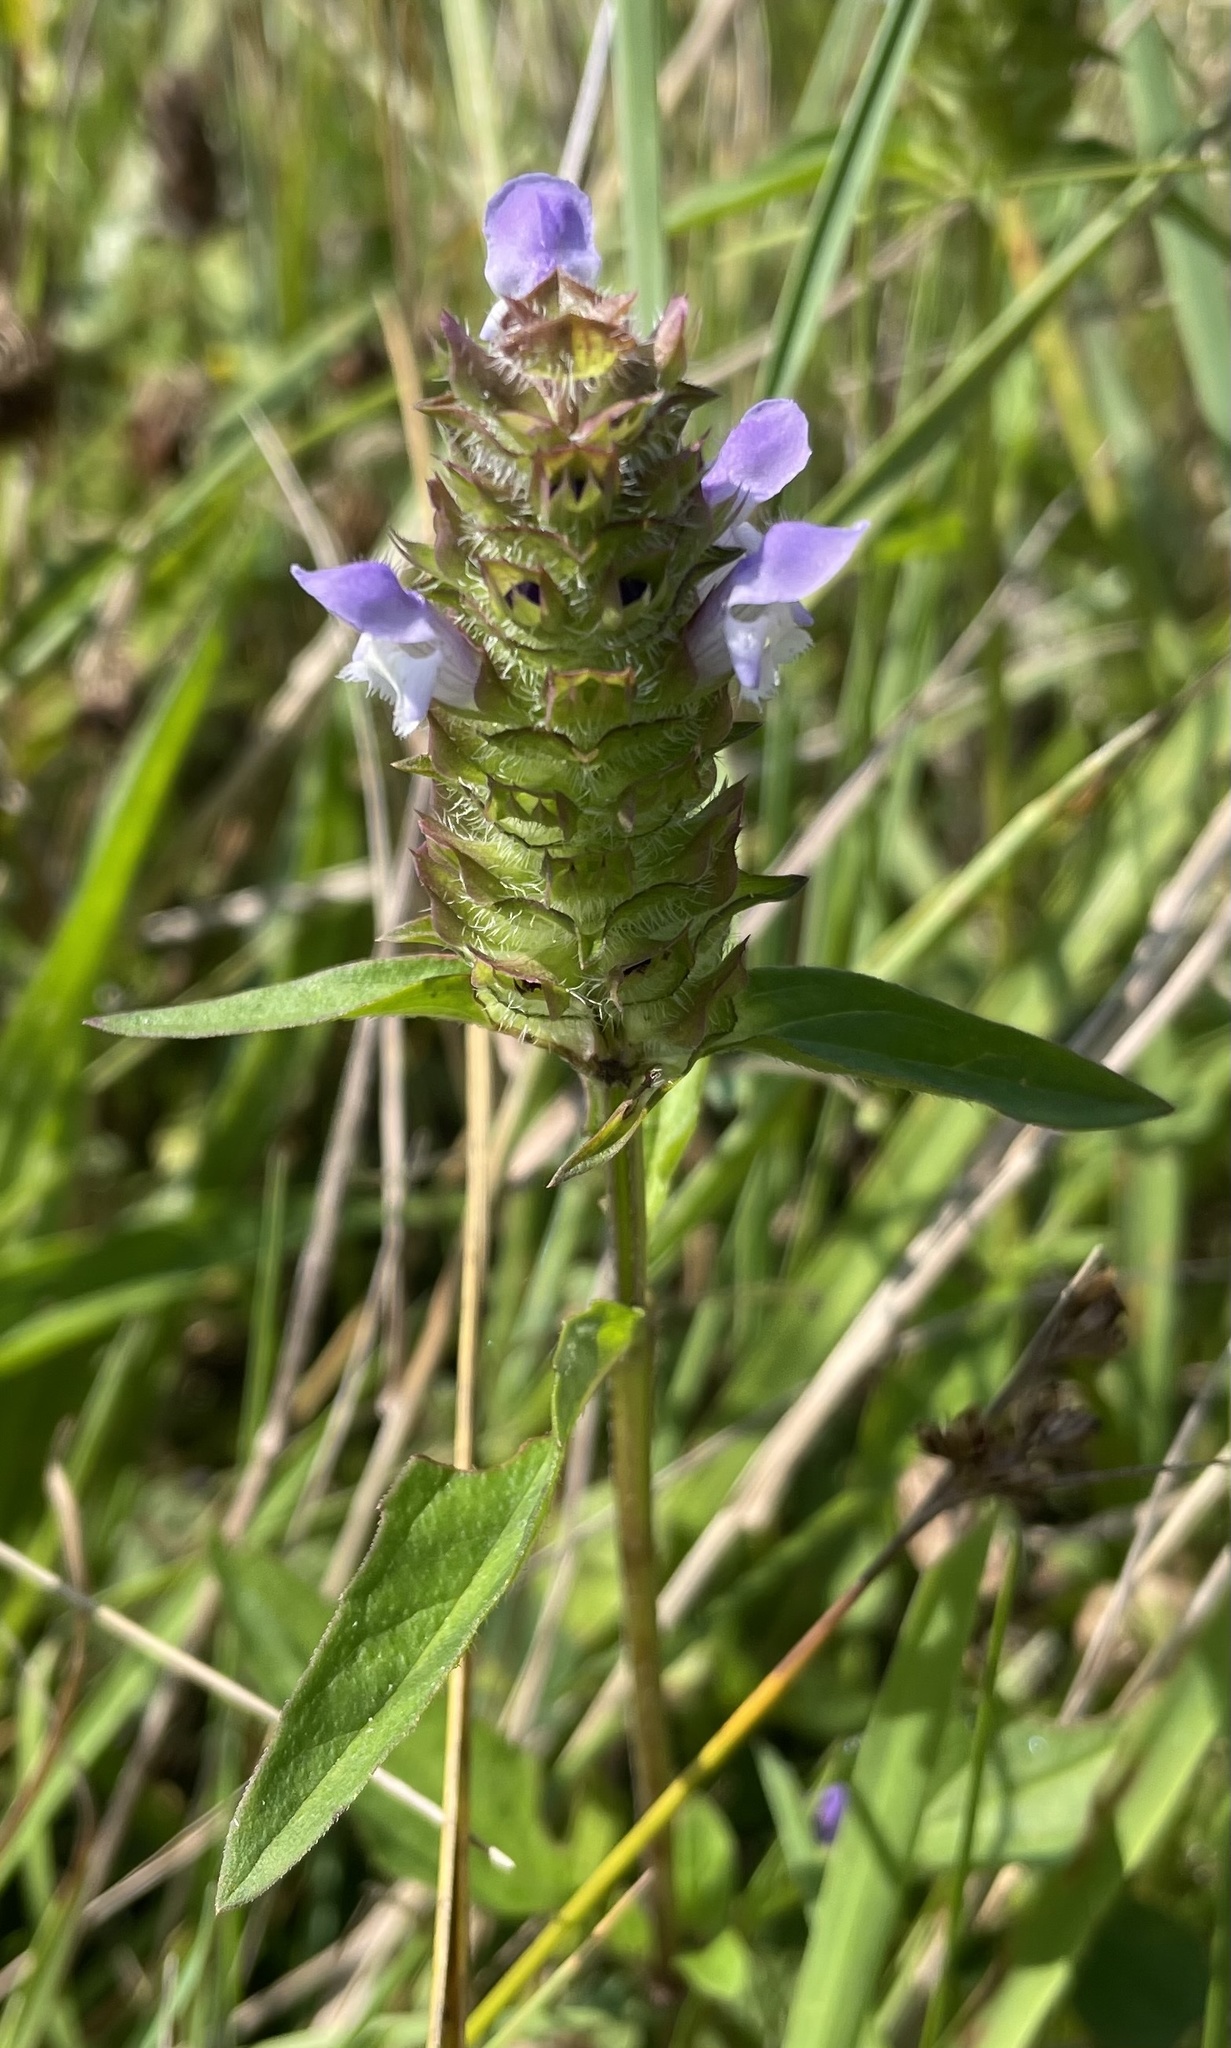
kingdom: Plantae
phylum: Tracheophyta
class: Magnoliopsida
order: Lamiales
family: Lamiaceae
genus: Prunella
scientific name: Prunella vulgaris
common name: Heal-all
